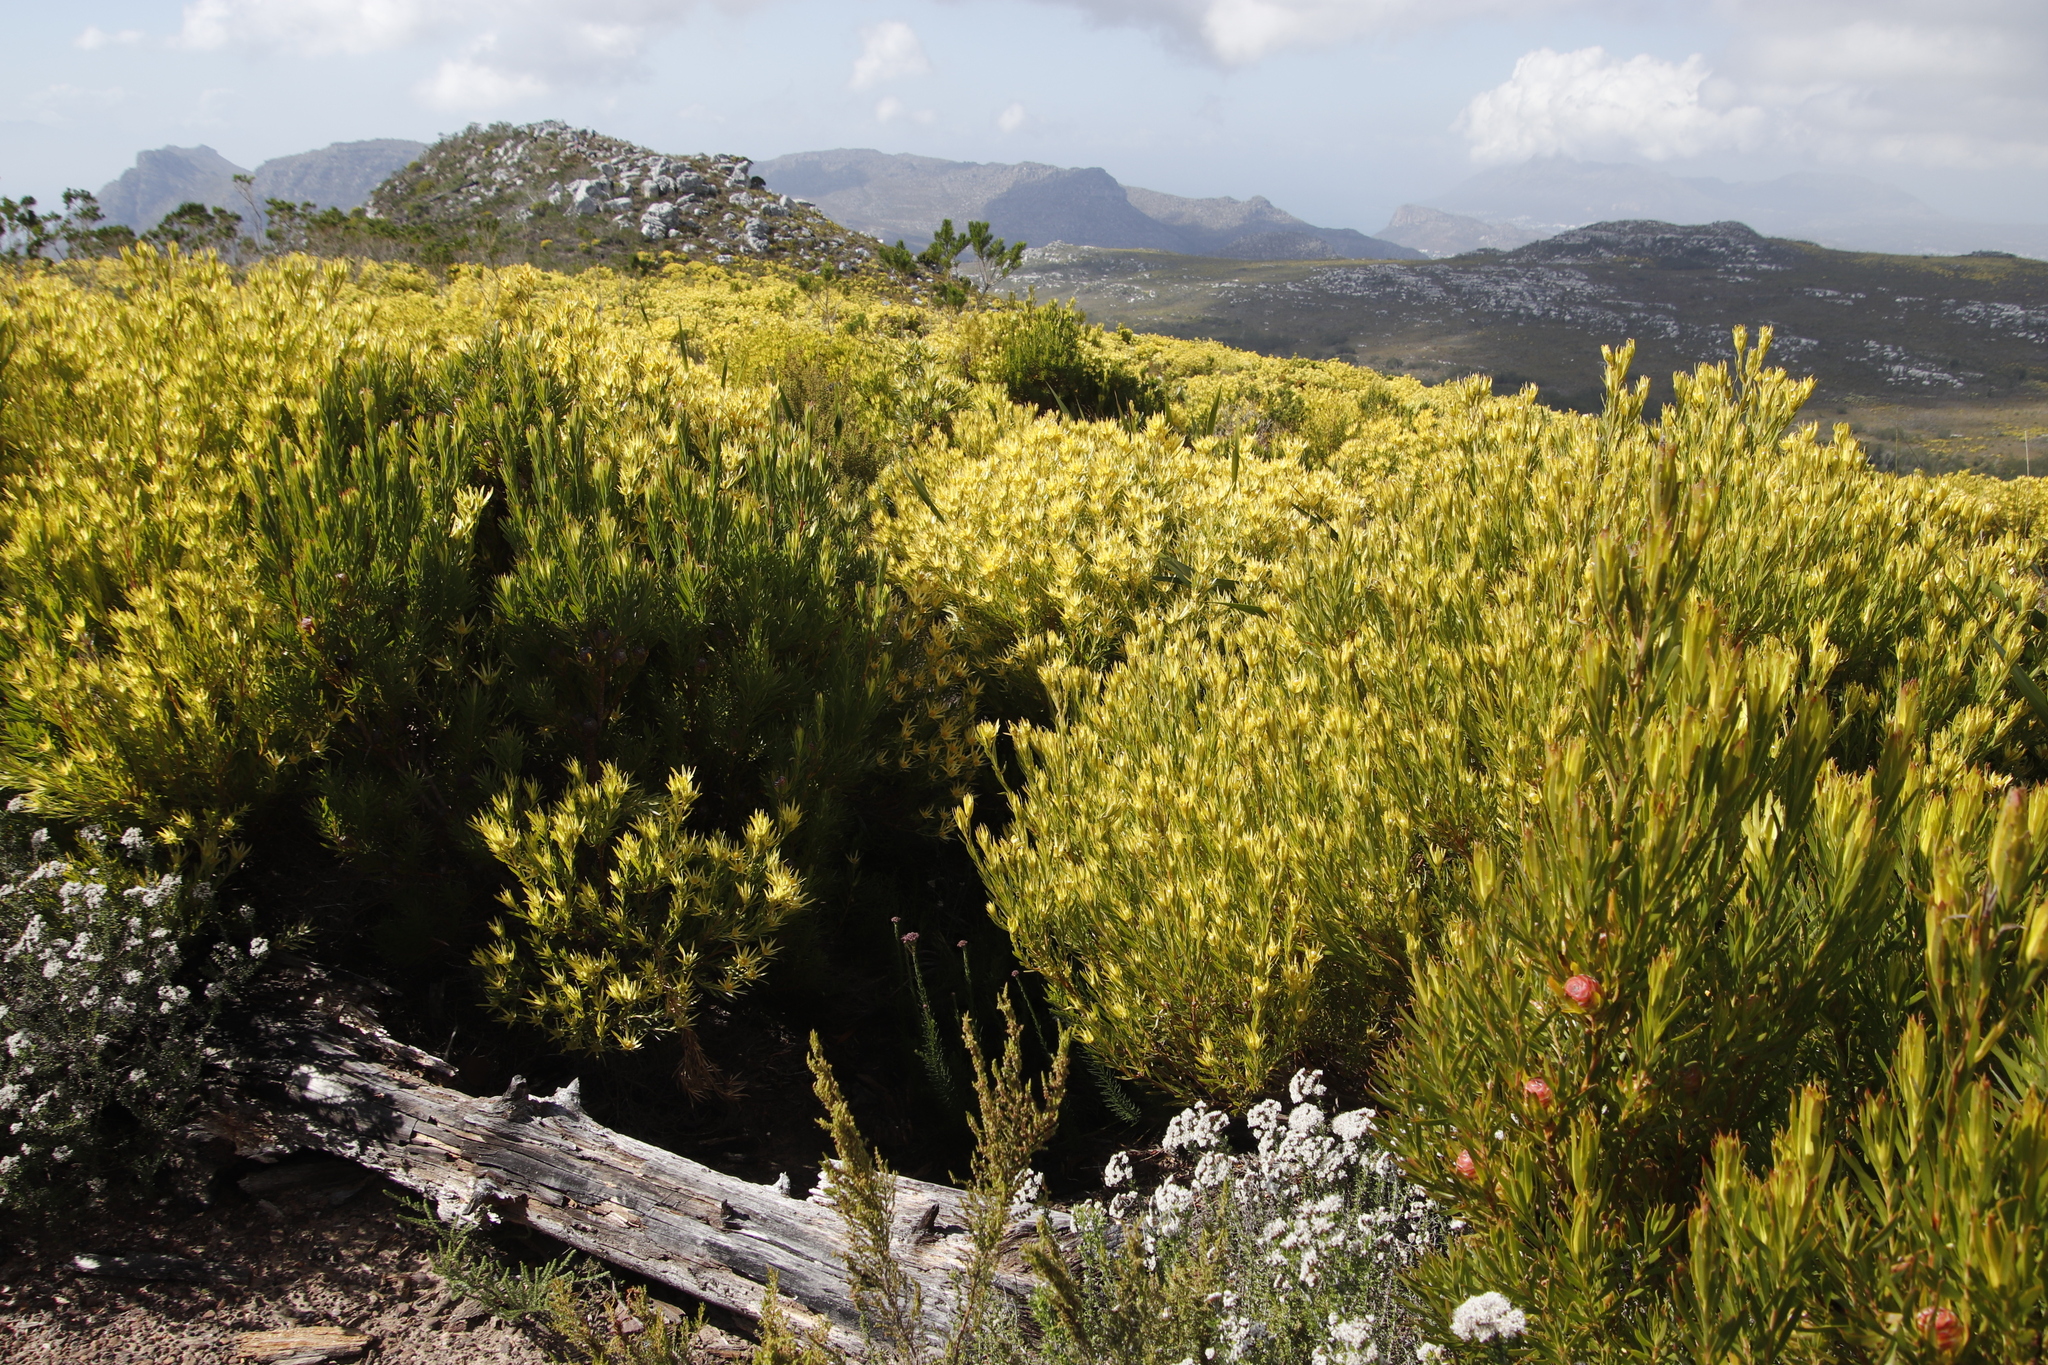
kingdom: Plantae
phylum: Tracheophyta
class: Magnoliopsida
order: Proteales
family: Proteaceae
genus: Leucadendron
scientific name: Leucadendron xanthoconus
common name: Sickle-leaf conebush
